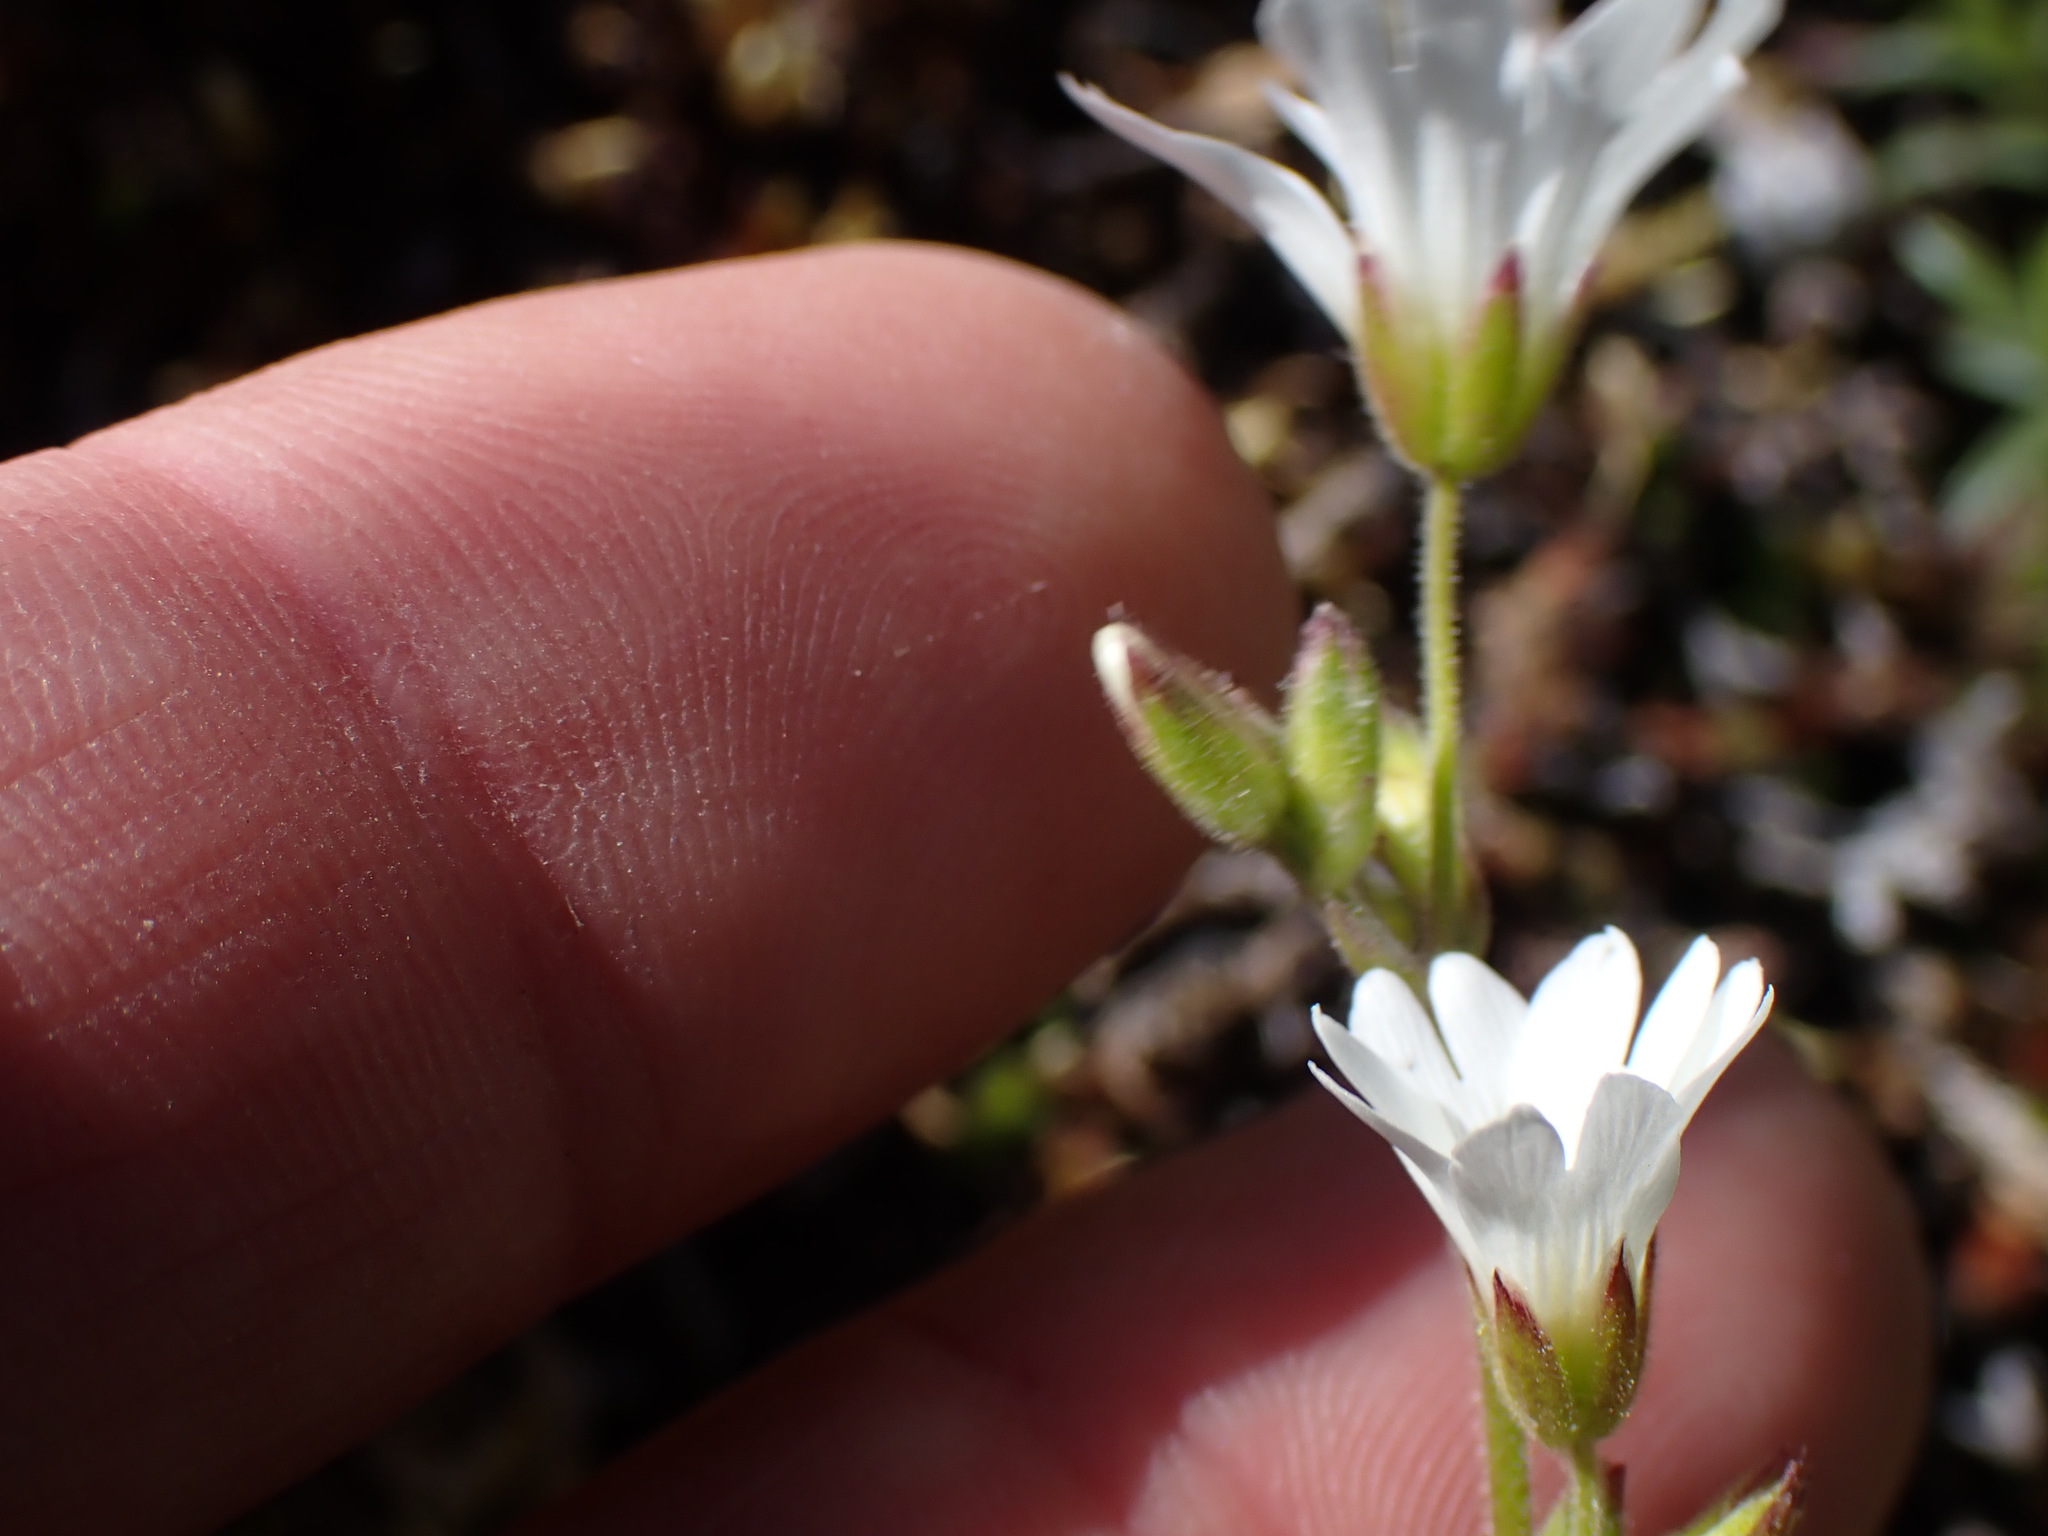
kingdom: Plantae
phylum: Tracheophyta
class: Magnoliopsida
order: Caryophyllales
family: Caryophyllaceae
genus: Cerastium
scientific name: Cerastium arvense
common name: Field mouse-ear
